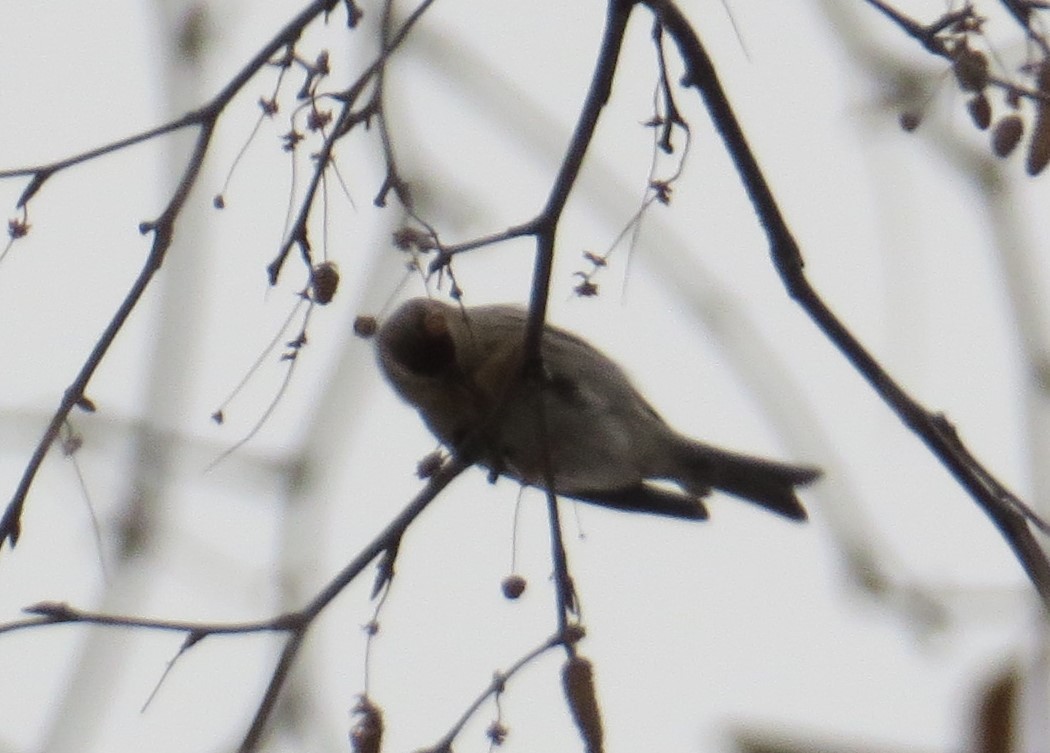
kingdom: Animalia
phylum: Chordata
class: Aves
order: Passeriformes
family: Fringillidae
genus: Acanthis
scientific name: Acanthis flammea
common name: Common redpoll
